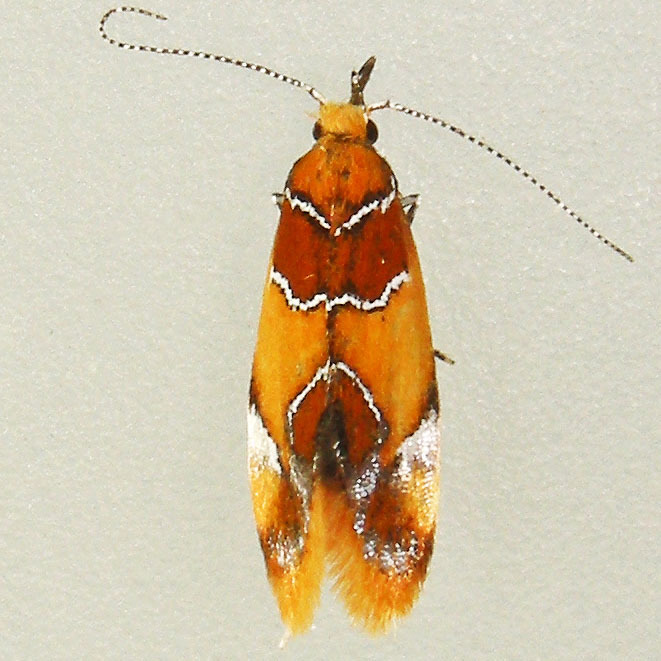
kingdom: Animalia
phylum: Arthropoda
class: Insecta
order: Lepidoptera
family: Oecophoridae
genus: Callima
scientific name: Callima argenticinctella
